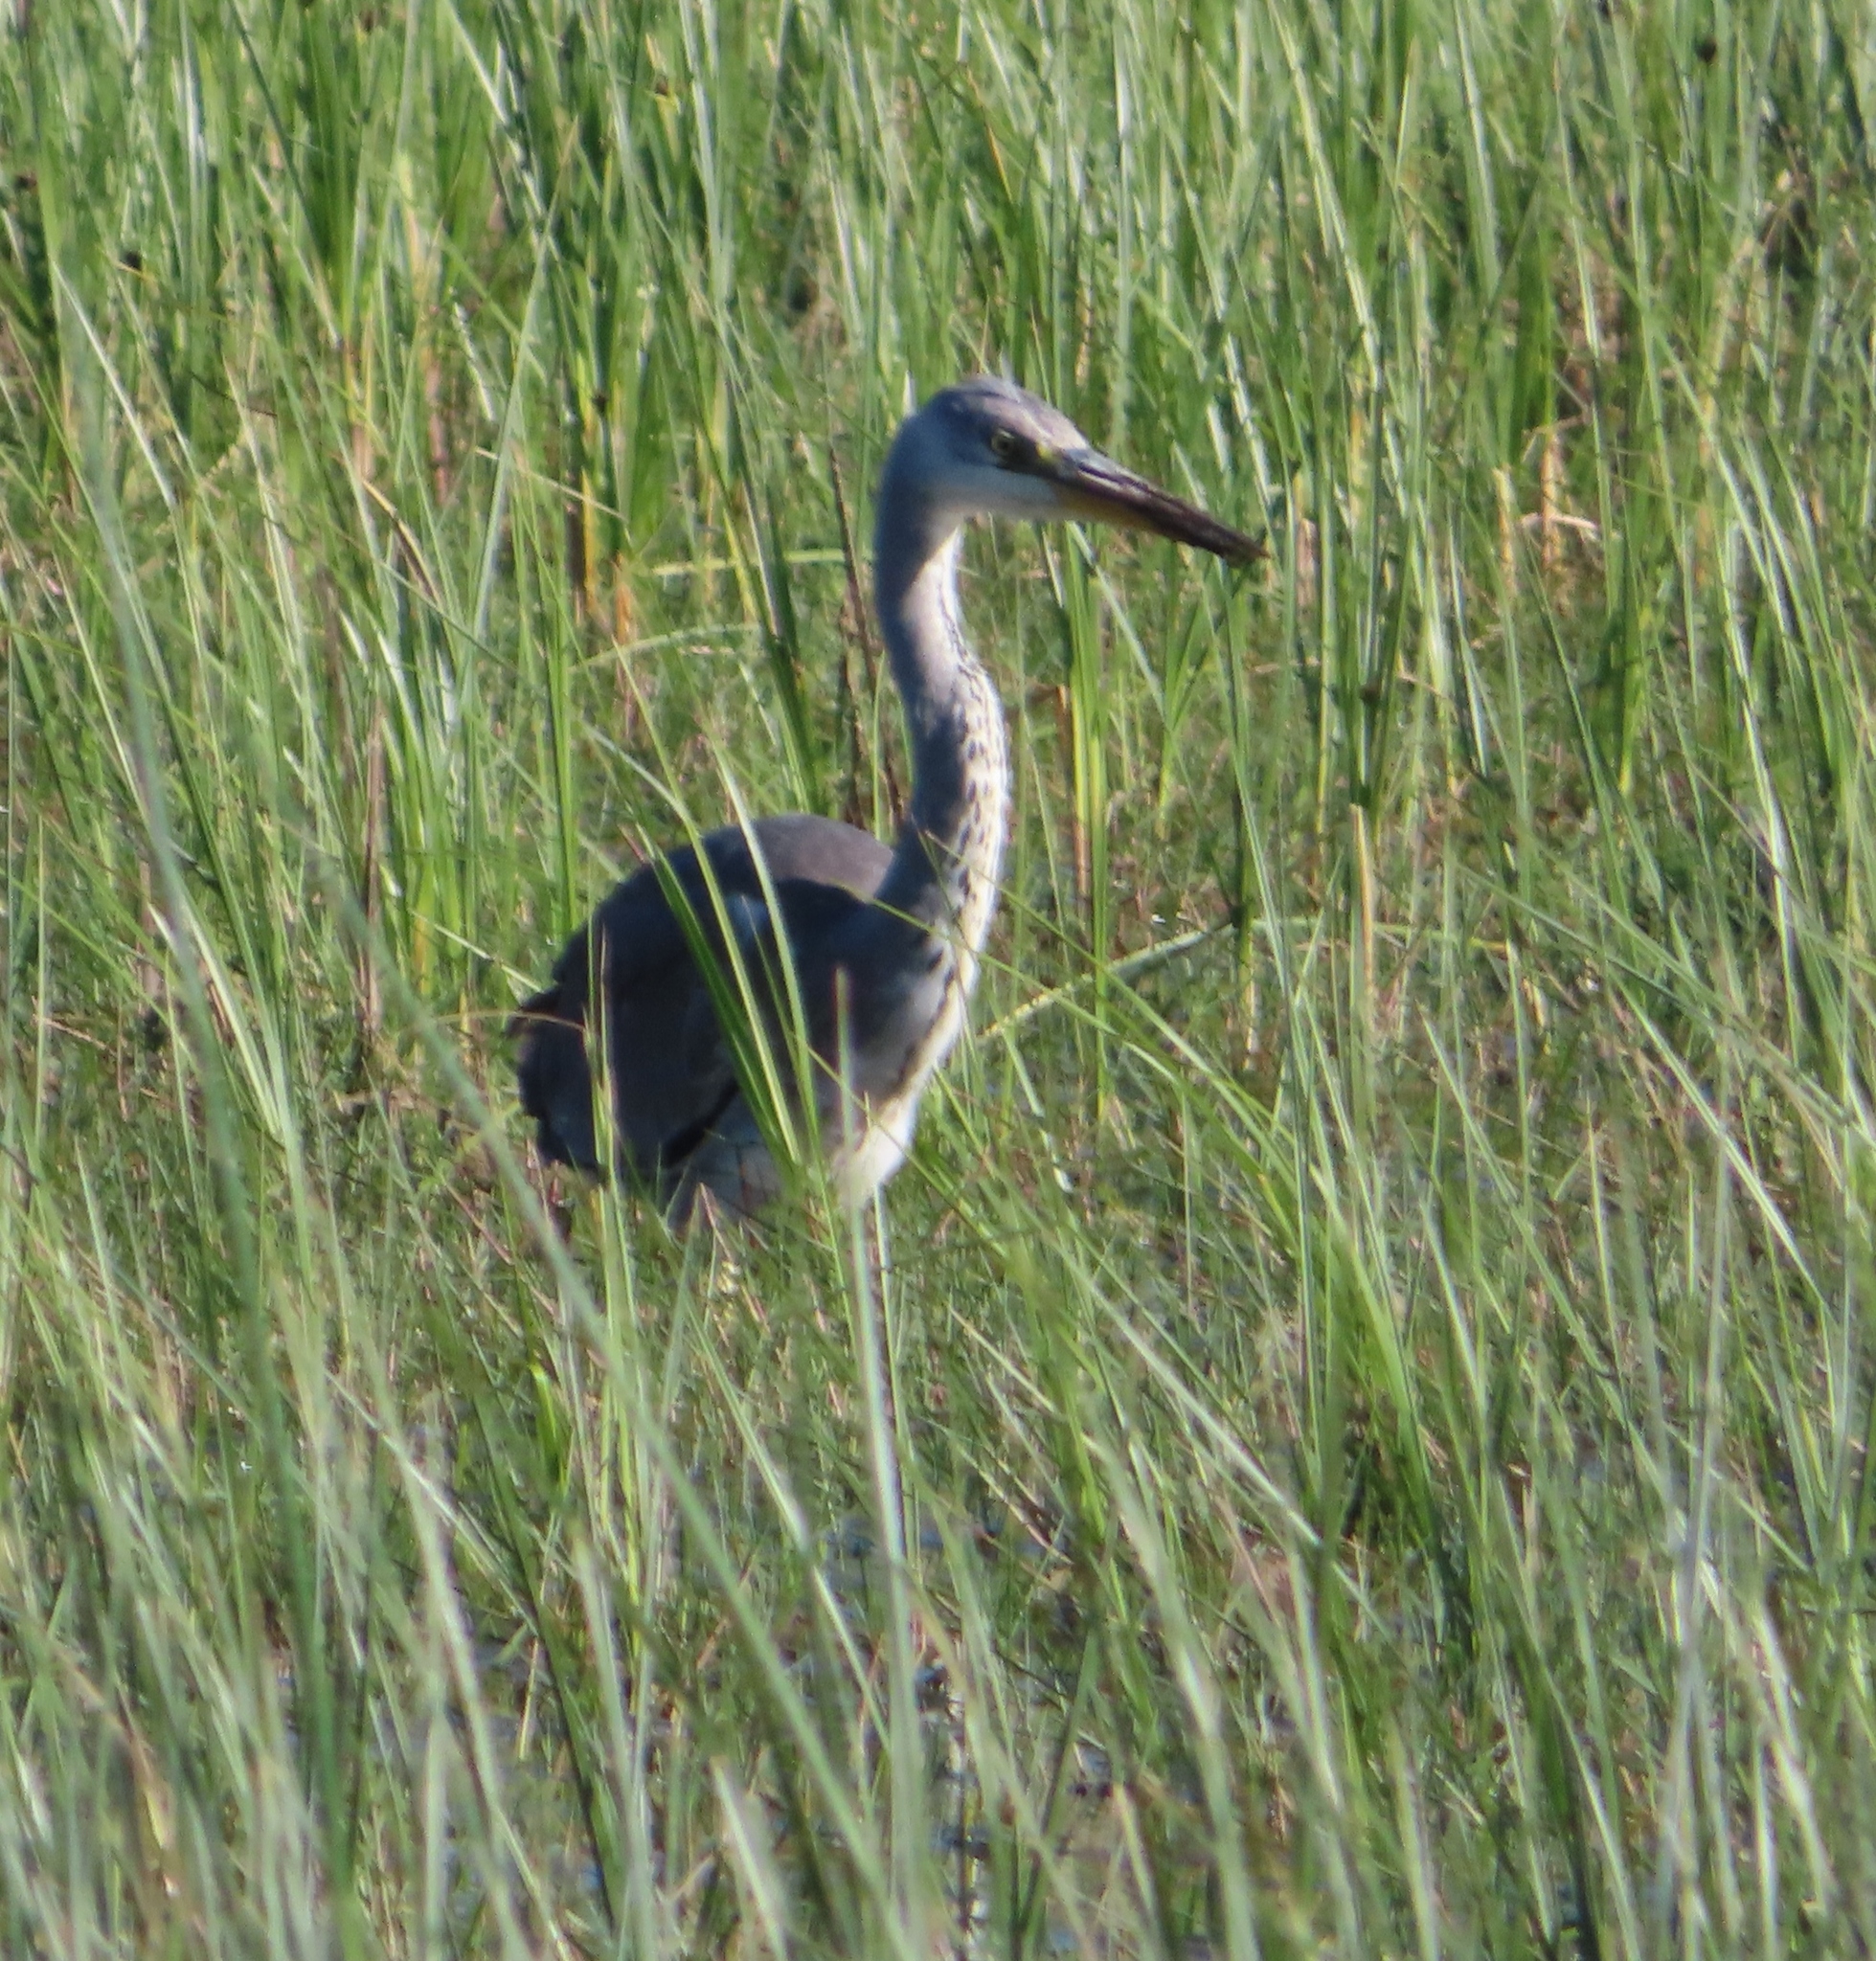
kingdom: Animalia
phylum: Chordata
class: Aves
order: Pelecaniformes
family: Ardeidae
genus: Ardea
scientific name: Ardea purpurea
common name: Purple heron
